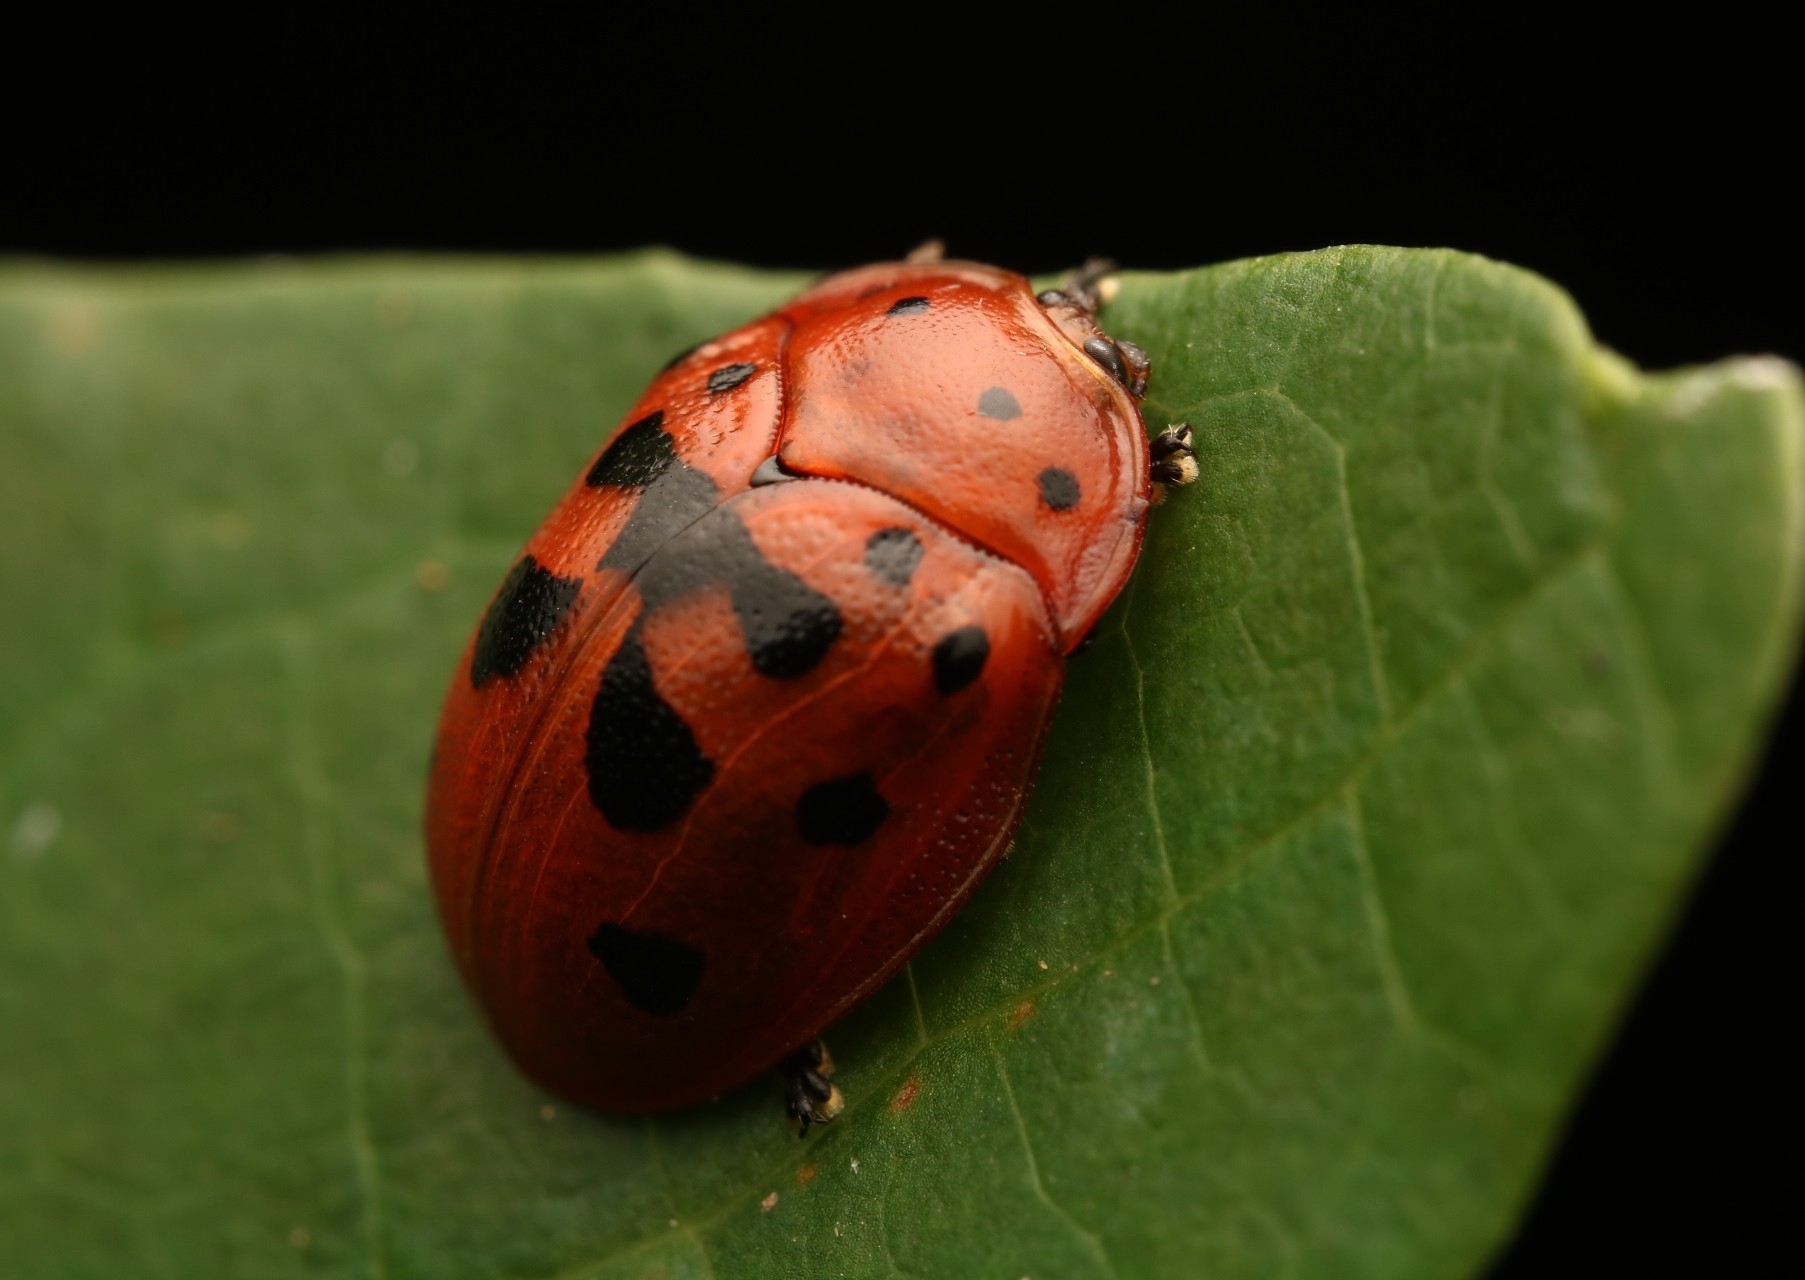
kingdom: Animalia
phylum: Arthropoda
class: Insecta
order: Coleoptera
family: Chrysomelidae
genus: Chelymorpha
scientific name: Chelymorpha cassidea
